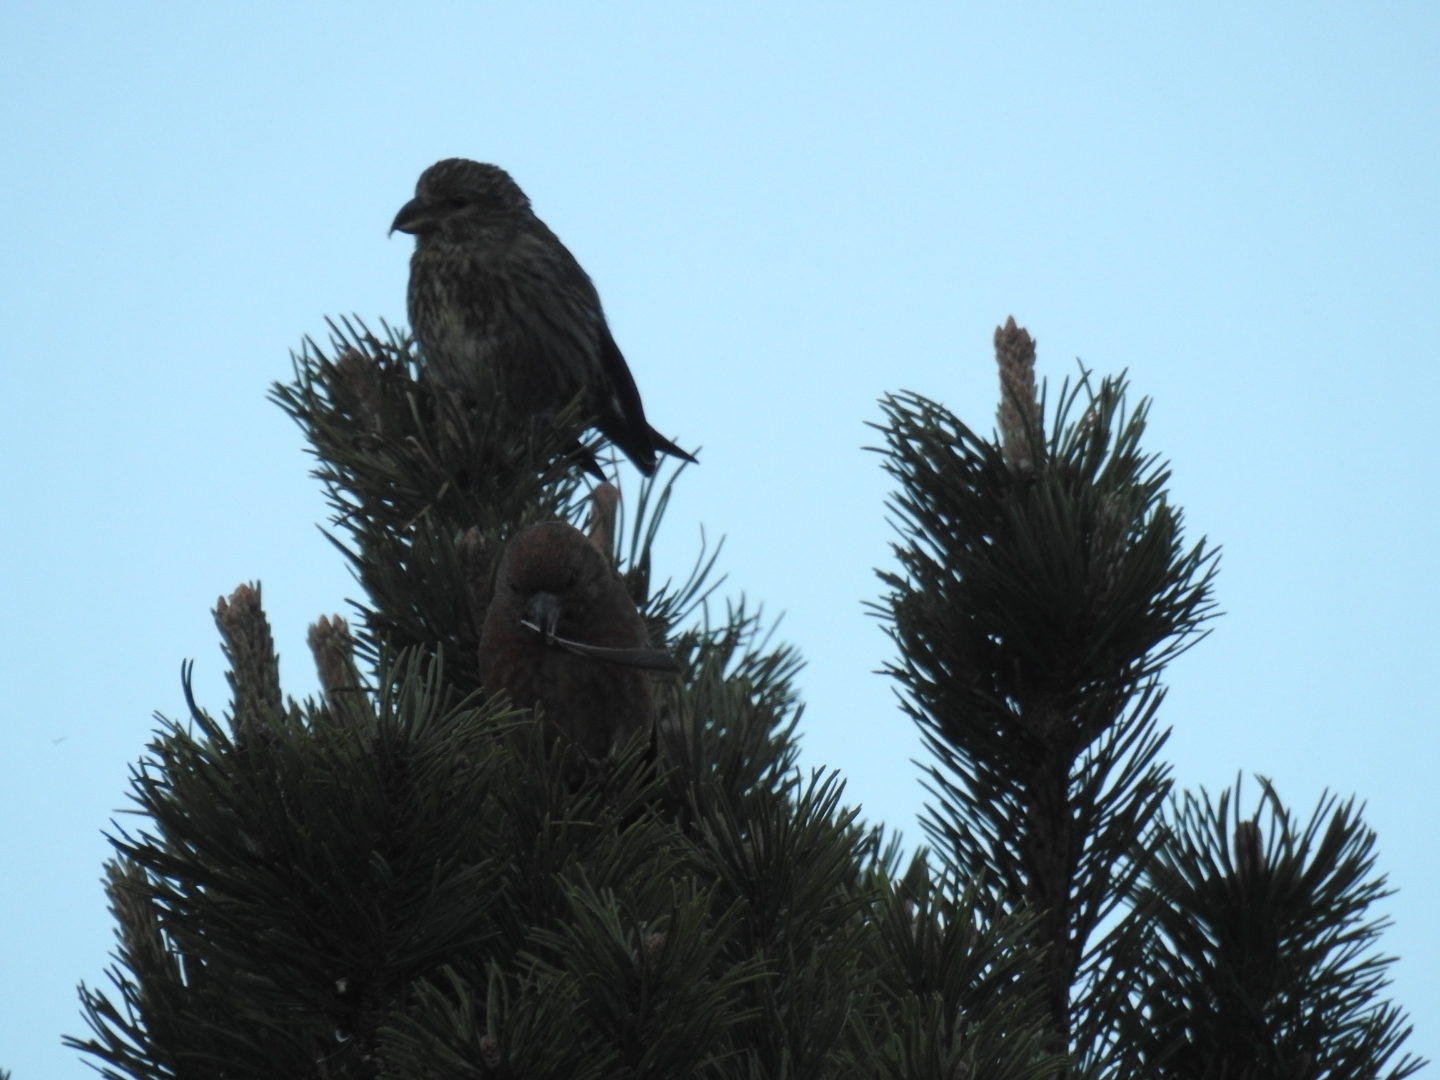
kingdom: Animalia
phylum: Chordata
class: Aves
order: Passeriformes
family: Fringillidae
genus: Loxia
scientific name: Loxia curvirostra
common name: Red crossbill
